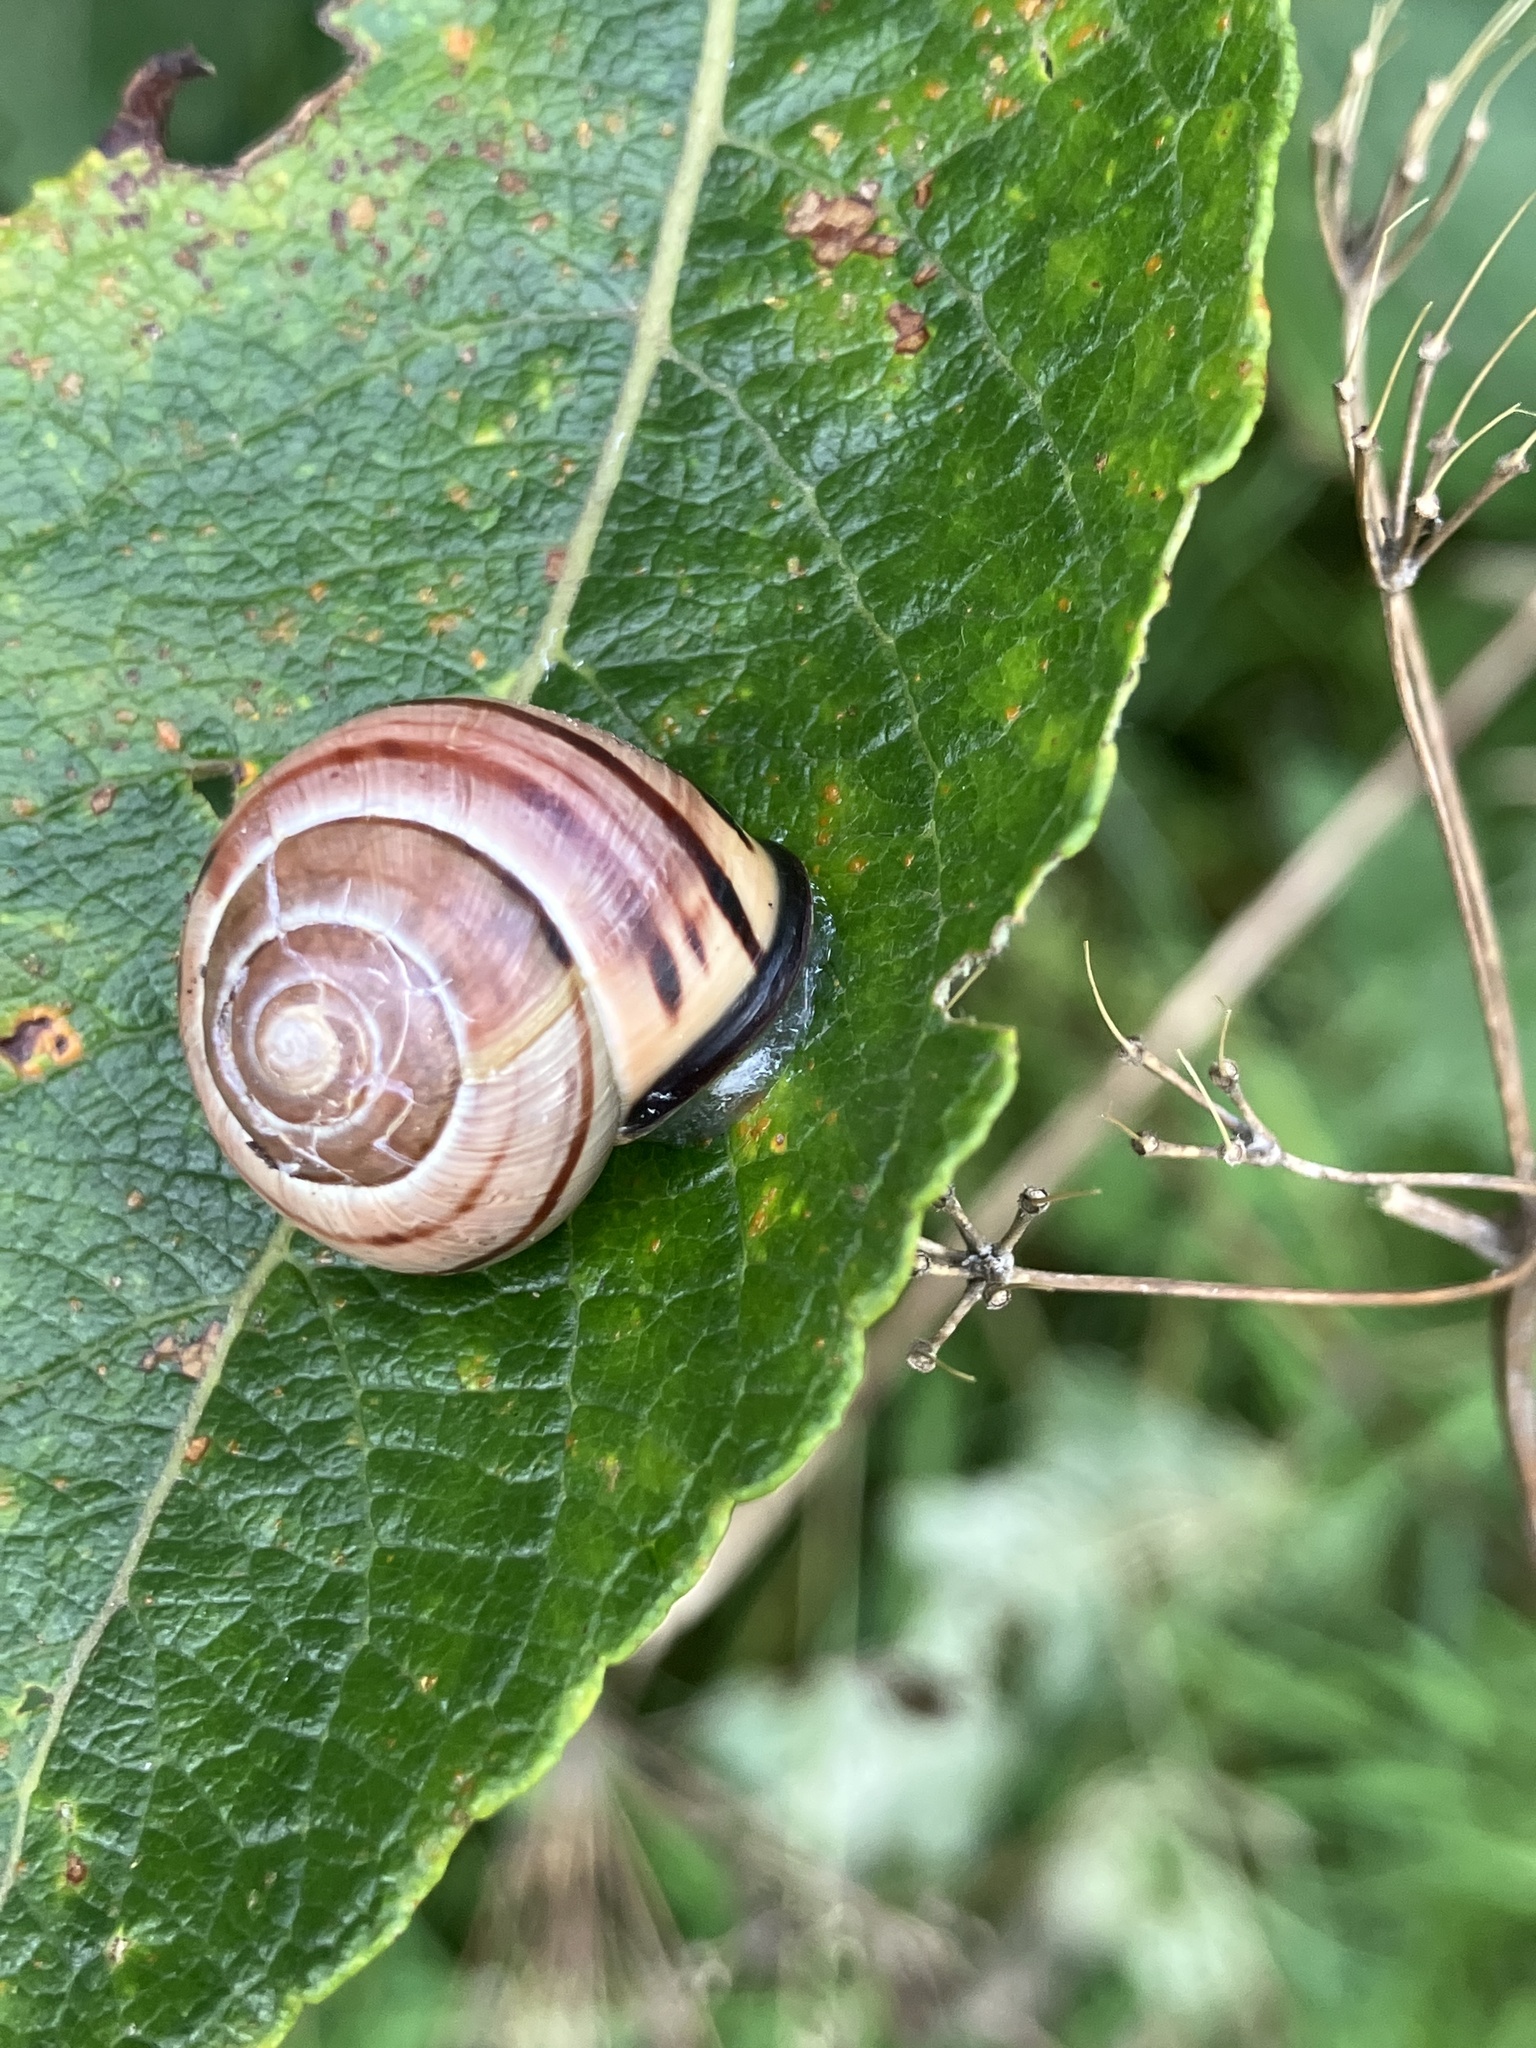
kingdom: Animalia
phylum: Mollusca
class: Gastropoda
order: Stylommatophora
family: Helicidae
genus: Cepaea
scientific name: Cepaea nemoralis
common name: Grovesnail
